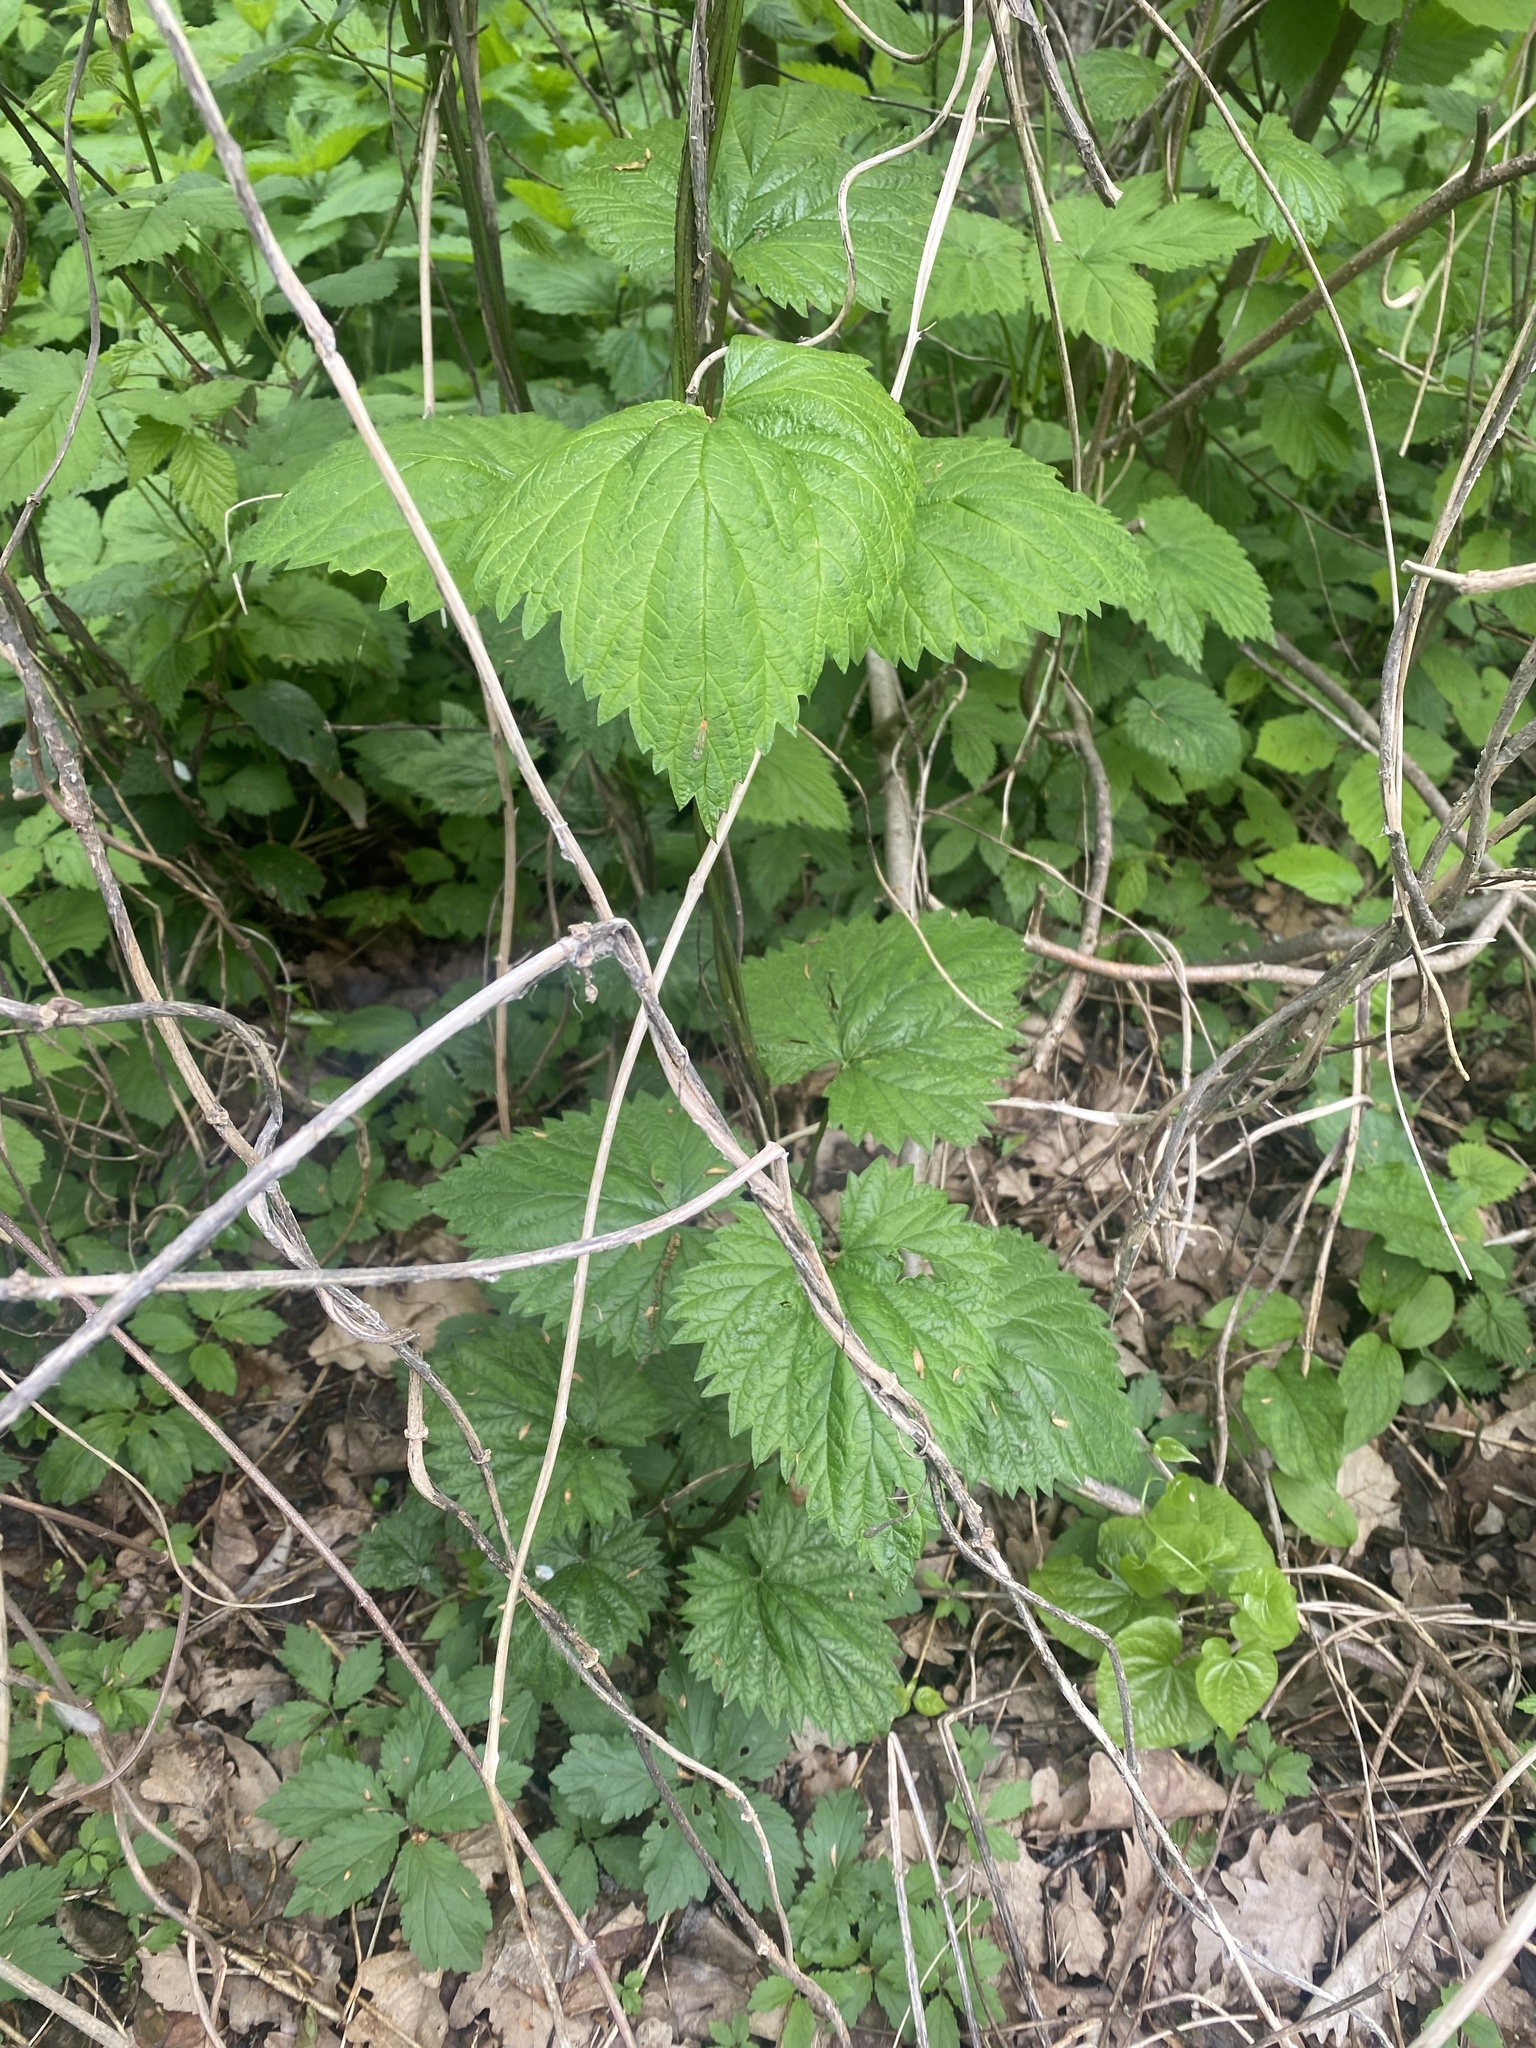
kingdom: Plantae
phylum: Tracheophyta
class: Magnoliopsida
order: Rosales
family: Cannabaceae
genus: Humulus
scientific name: Humulus lupulus
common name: Hop
